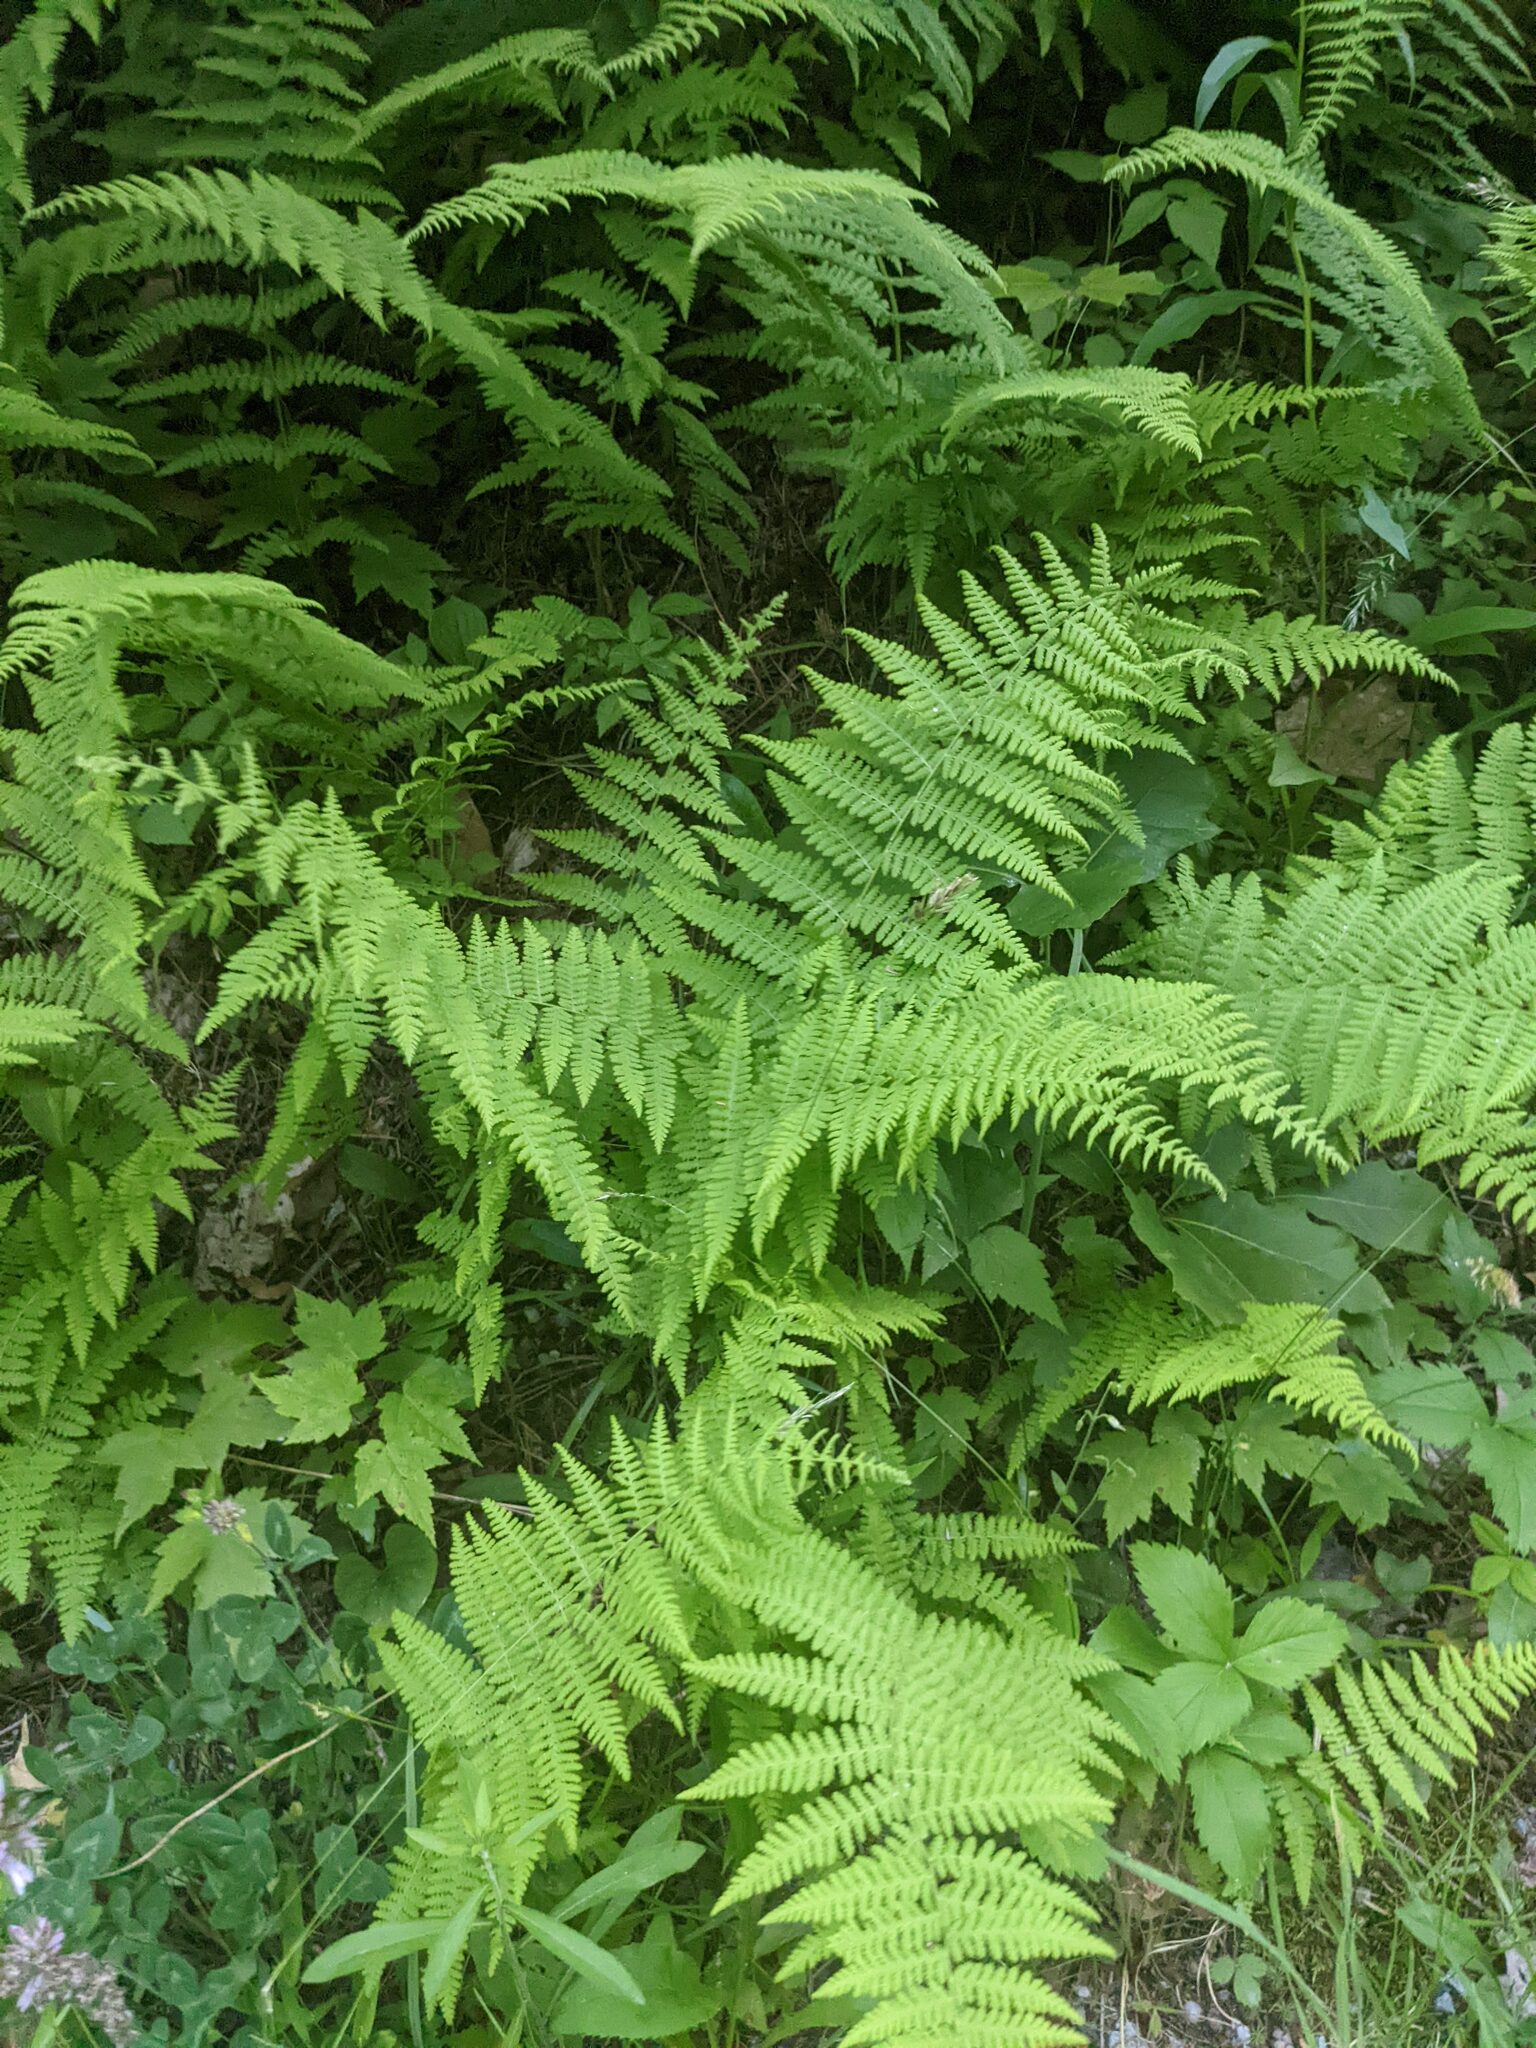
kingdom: Plantae
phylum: Tracheophyta
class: Polypodiopsida
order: Polypodiales
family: Dennstaedtiaceae
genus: Sitobolium
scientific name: Sitobolium punctilobum
